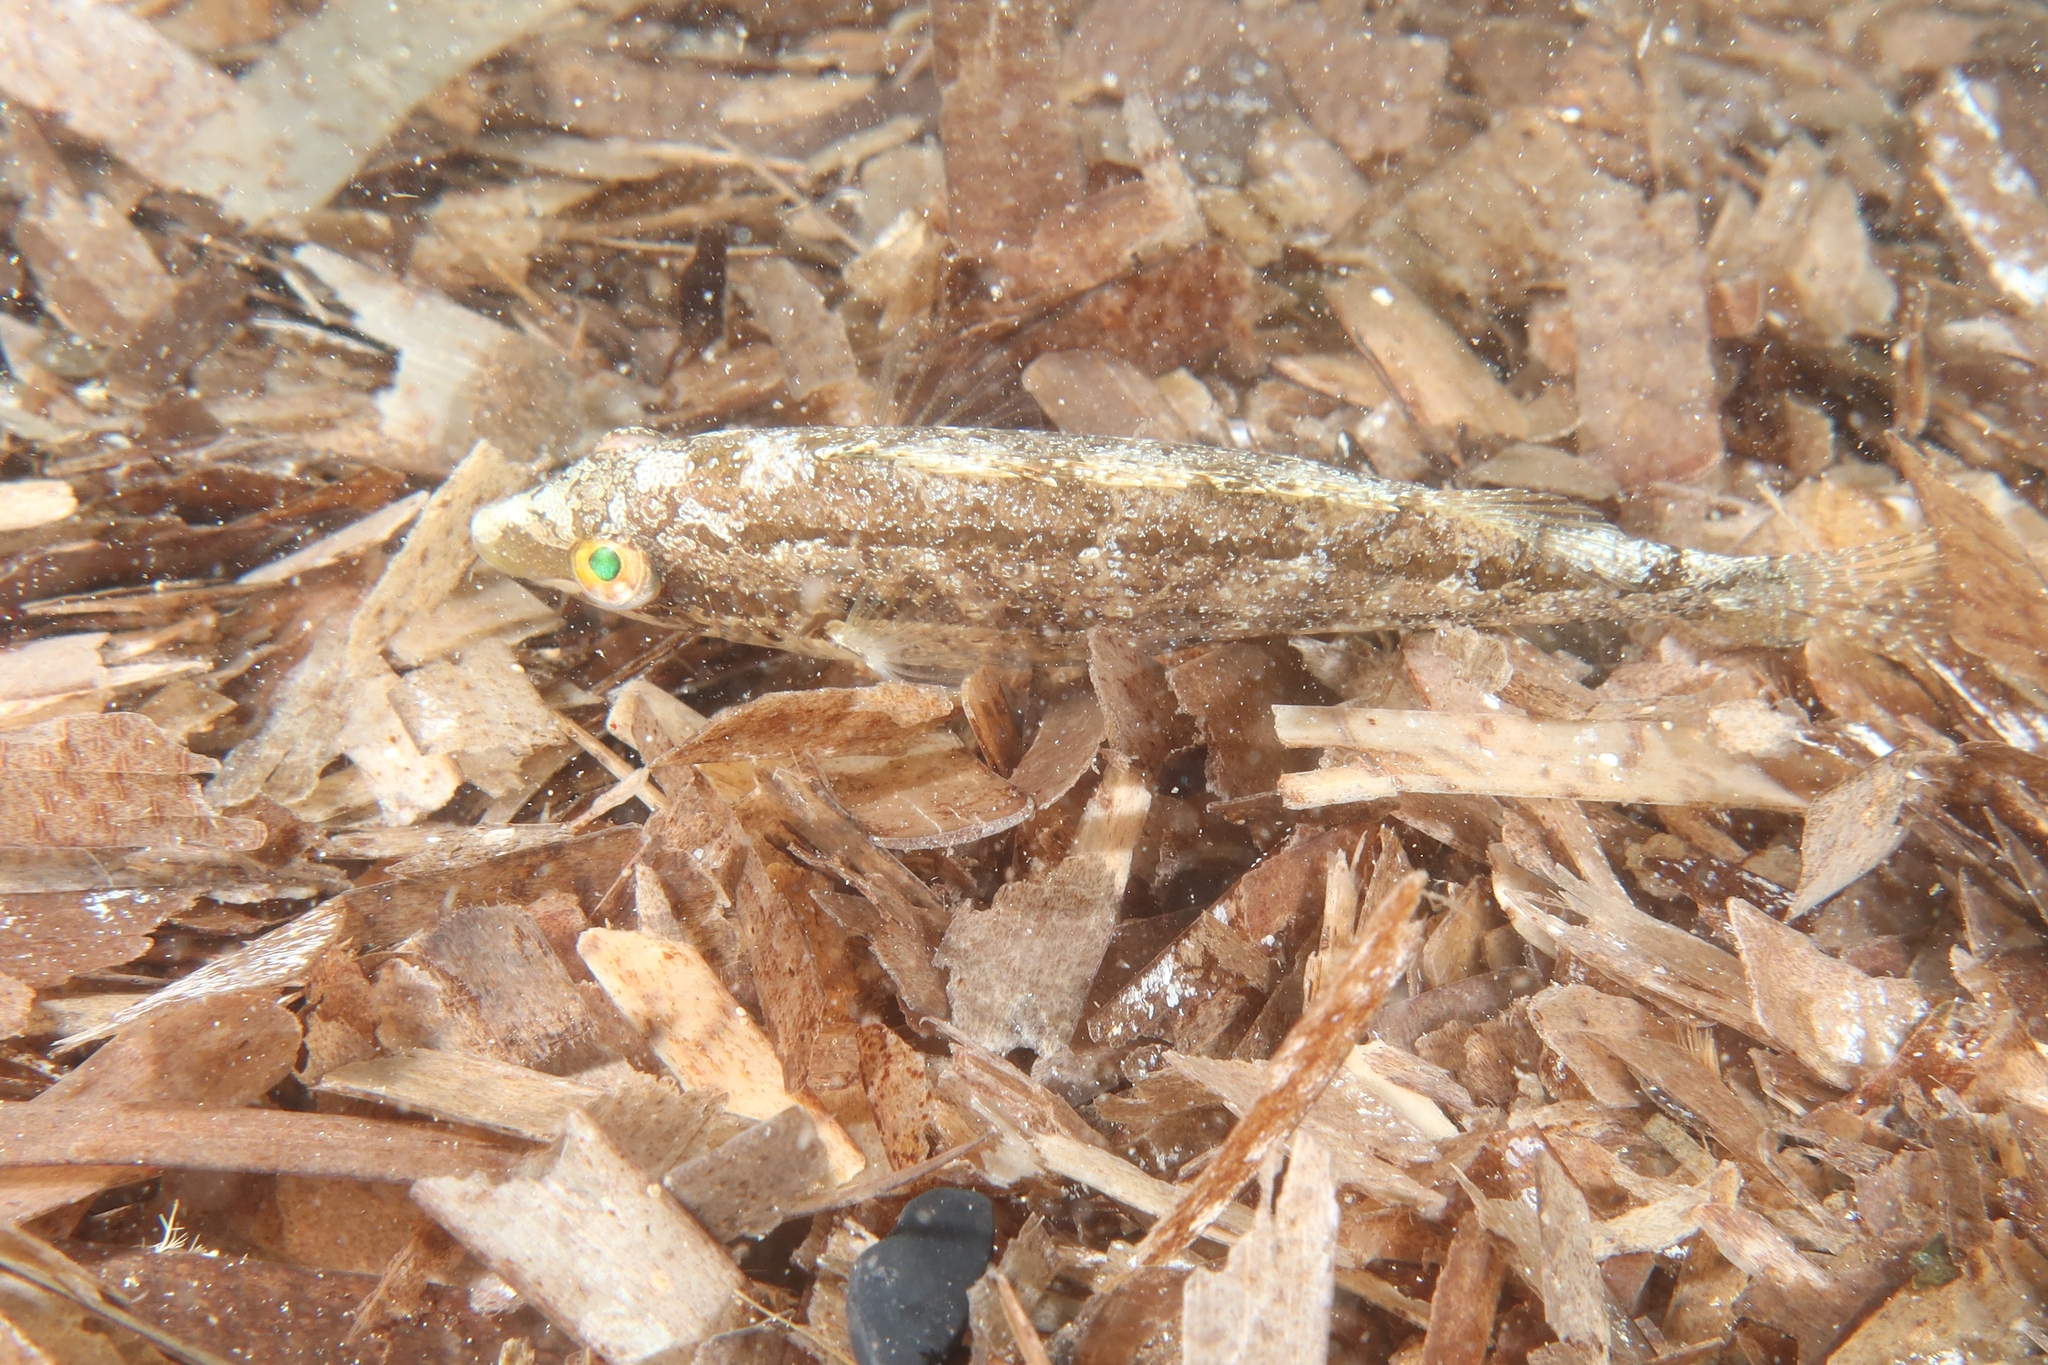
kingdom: Animalia
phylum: Chordata
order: Perciformes
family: Labridae
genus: Symphodus
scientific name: Symphodus cinereus
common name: Grey wrasse
